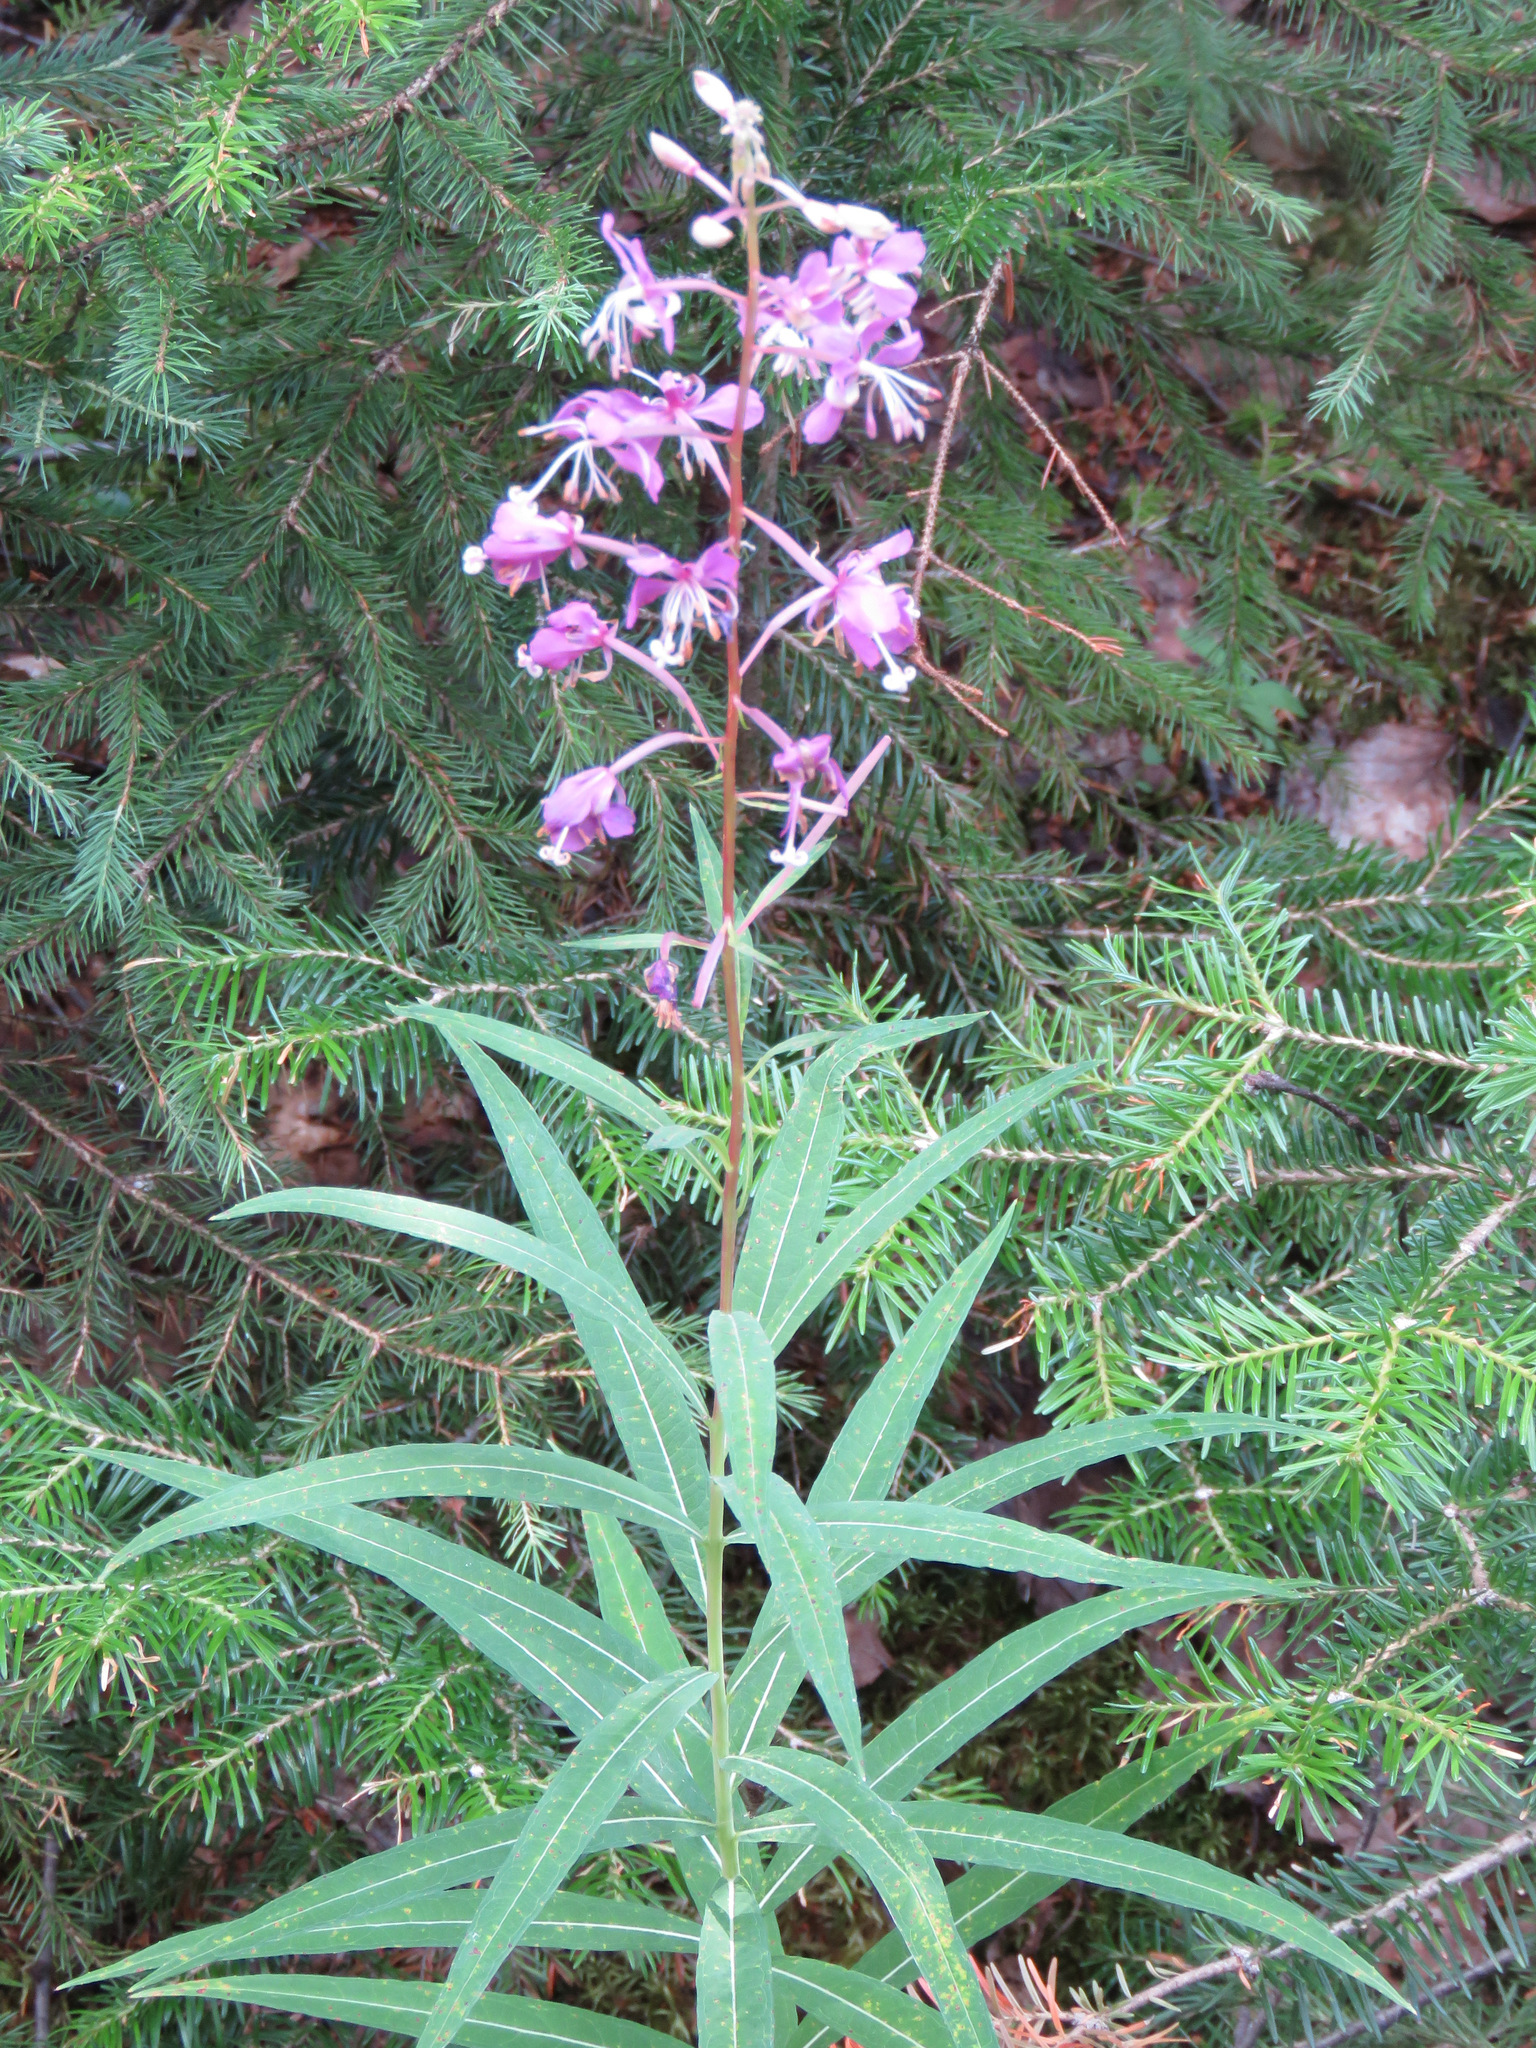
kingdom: Plantae
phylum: Tracheophyta
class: Magnoliopsida
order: Myrtales
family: Onagraceae
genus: Chamaenerion
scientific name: Chamaenerion angustifolium
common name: Fireweed
